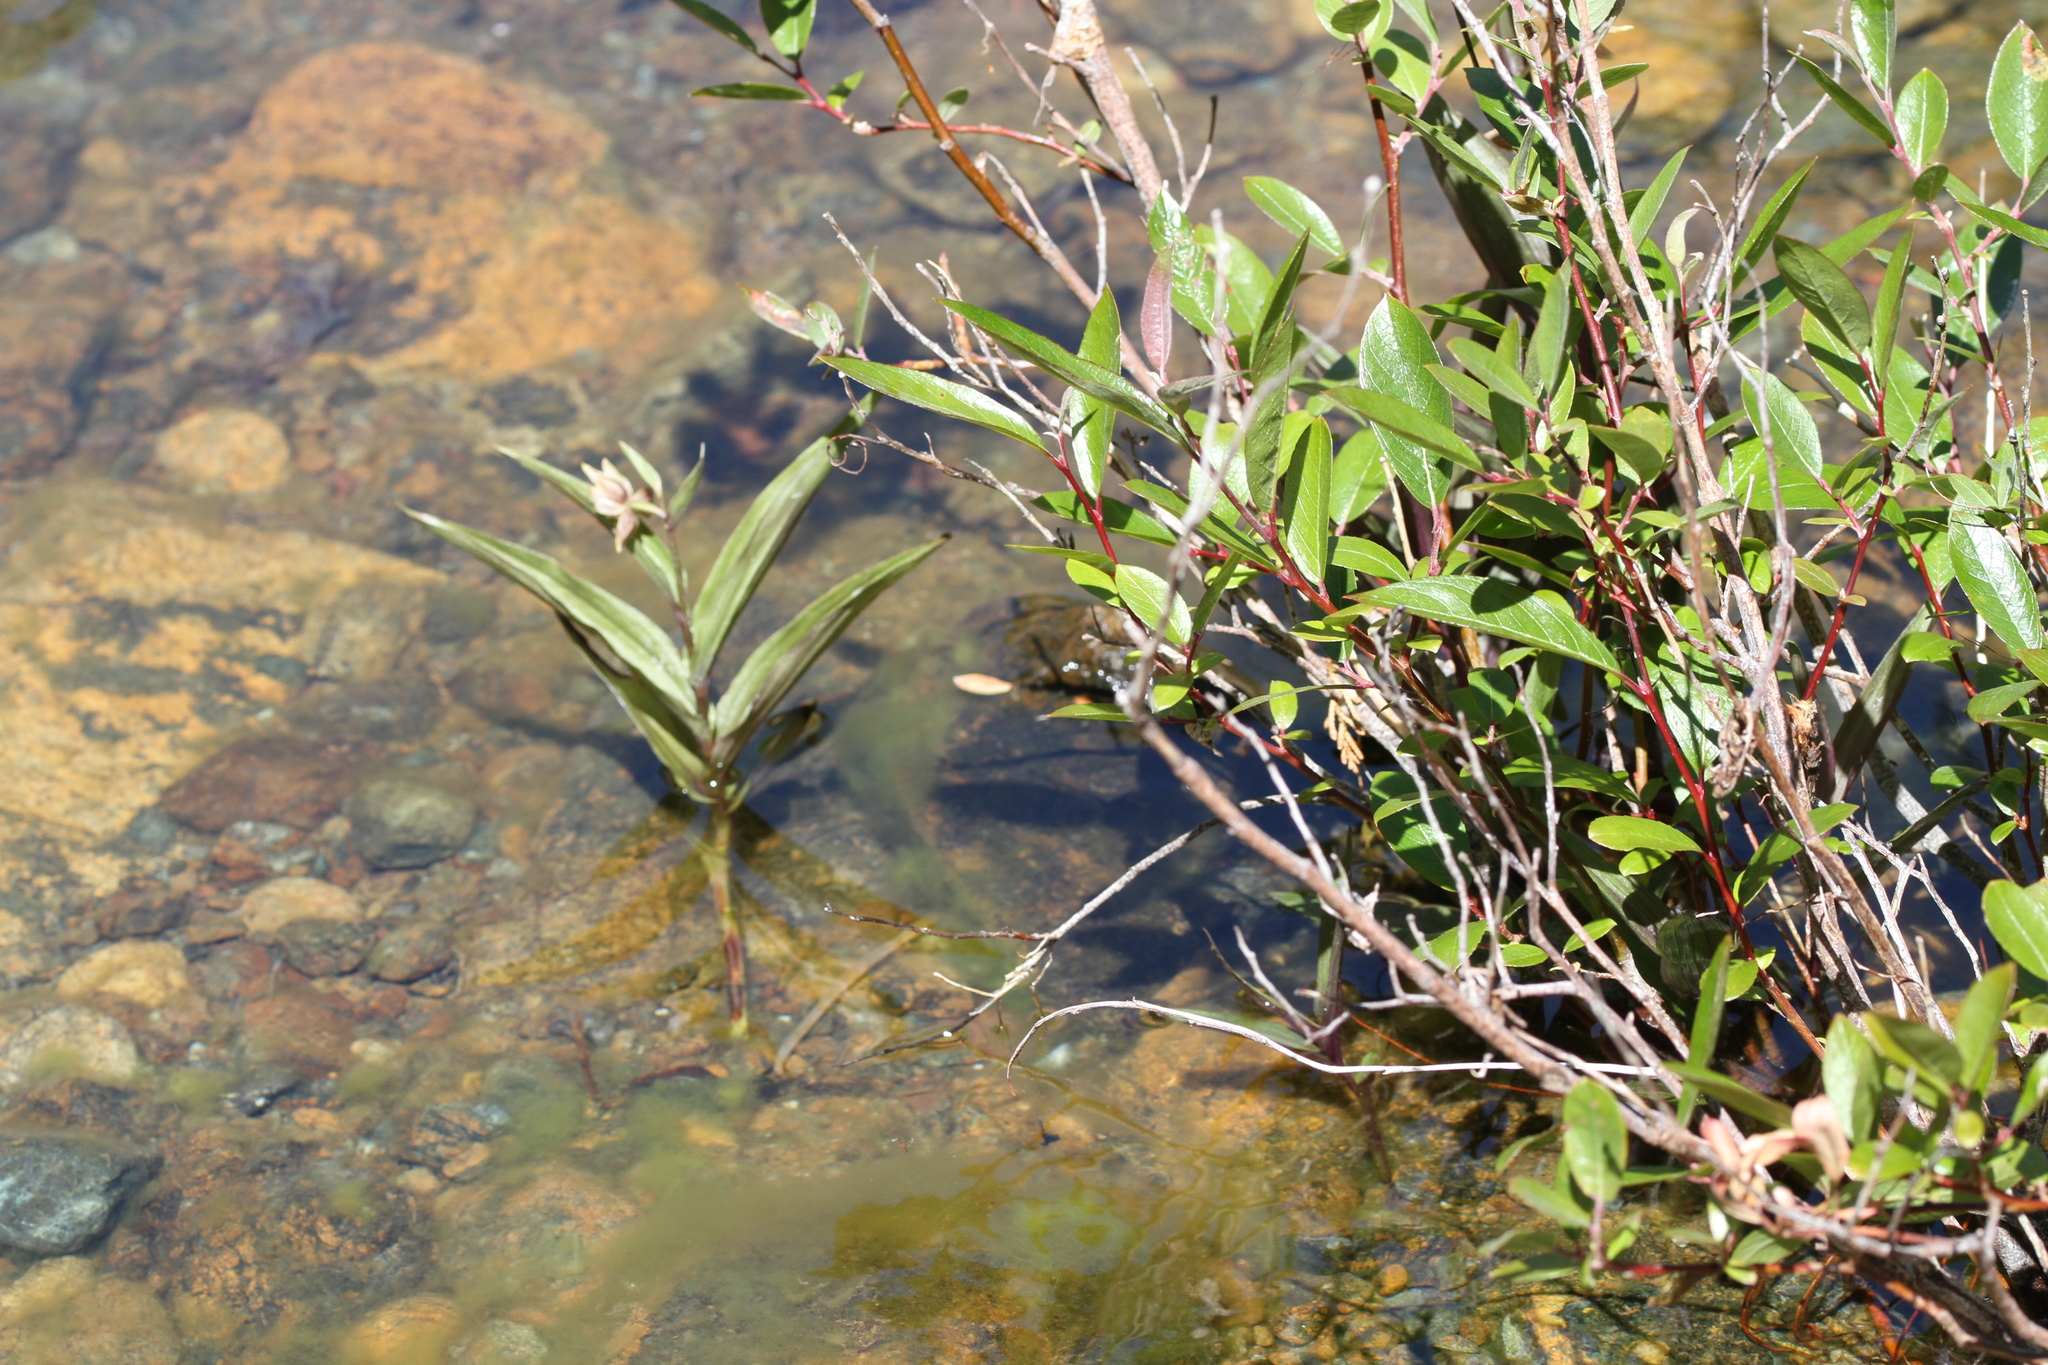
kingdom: Plantae
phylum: Tracheophyta
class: Liliopsida
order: Asparagales
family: Orchidaceae
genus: Epipactis
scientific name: Epipactis gigantea
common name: Chatterbox
